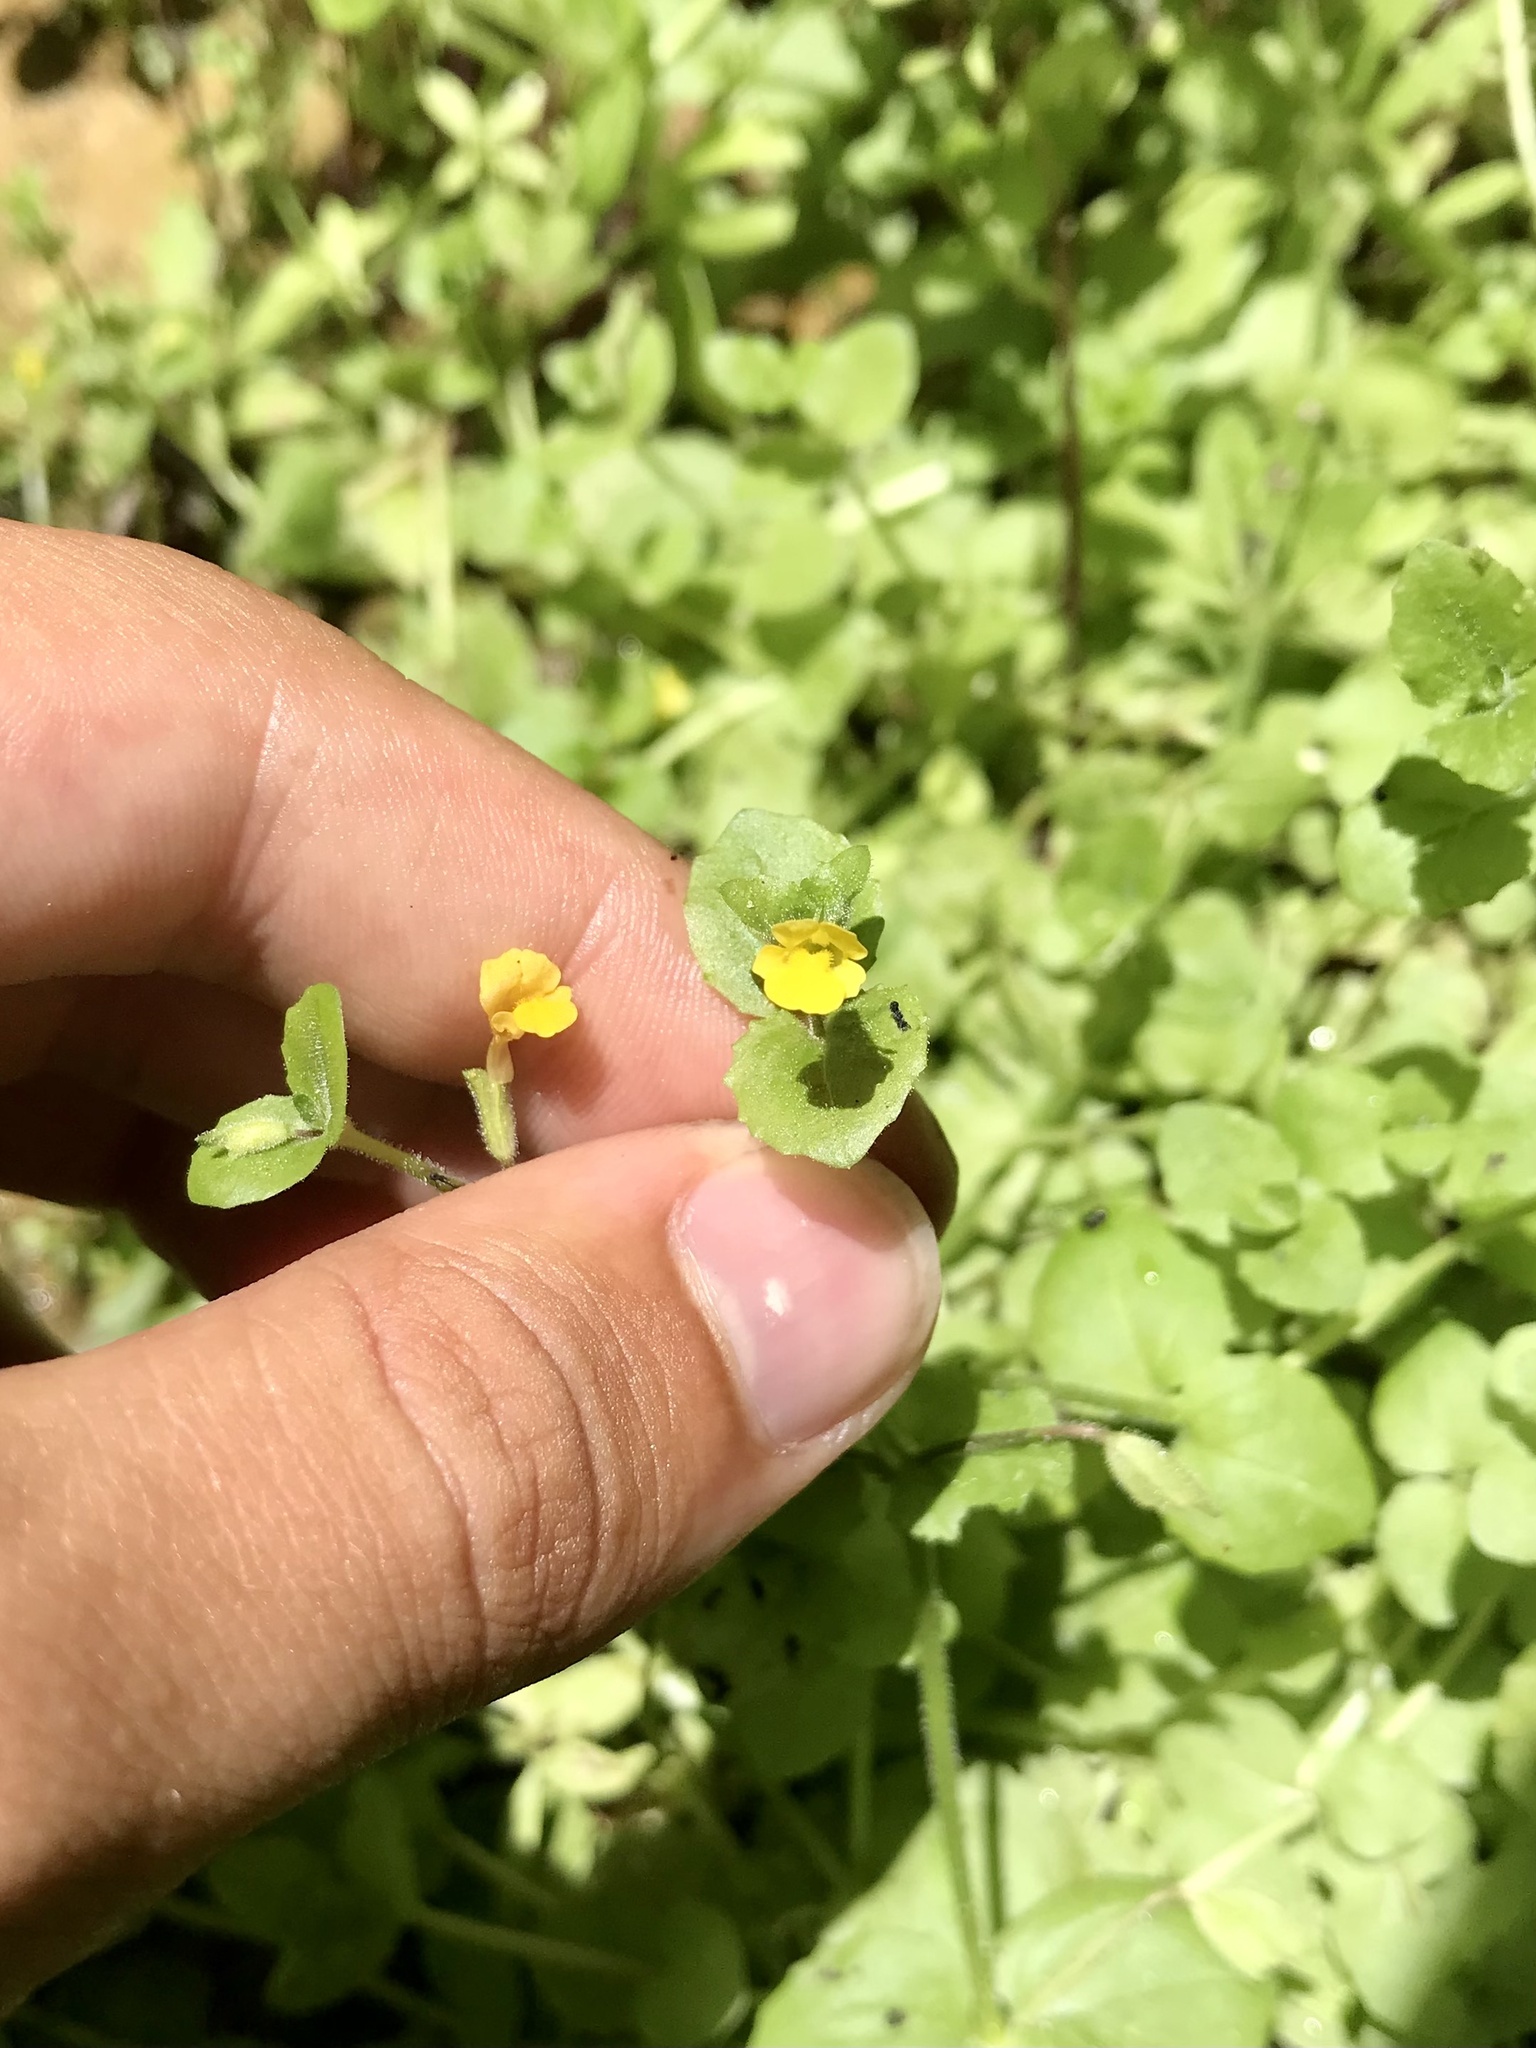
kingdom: Plantae
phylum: Tracheophyta
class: Magnoliopsida
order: Lamiales
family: Phrymaceae
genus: Erythranthe
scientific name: Erythranthe geyeri
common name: Geyer's monkeyflower
